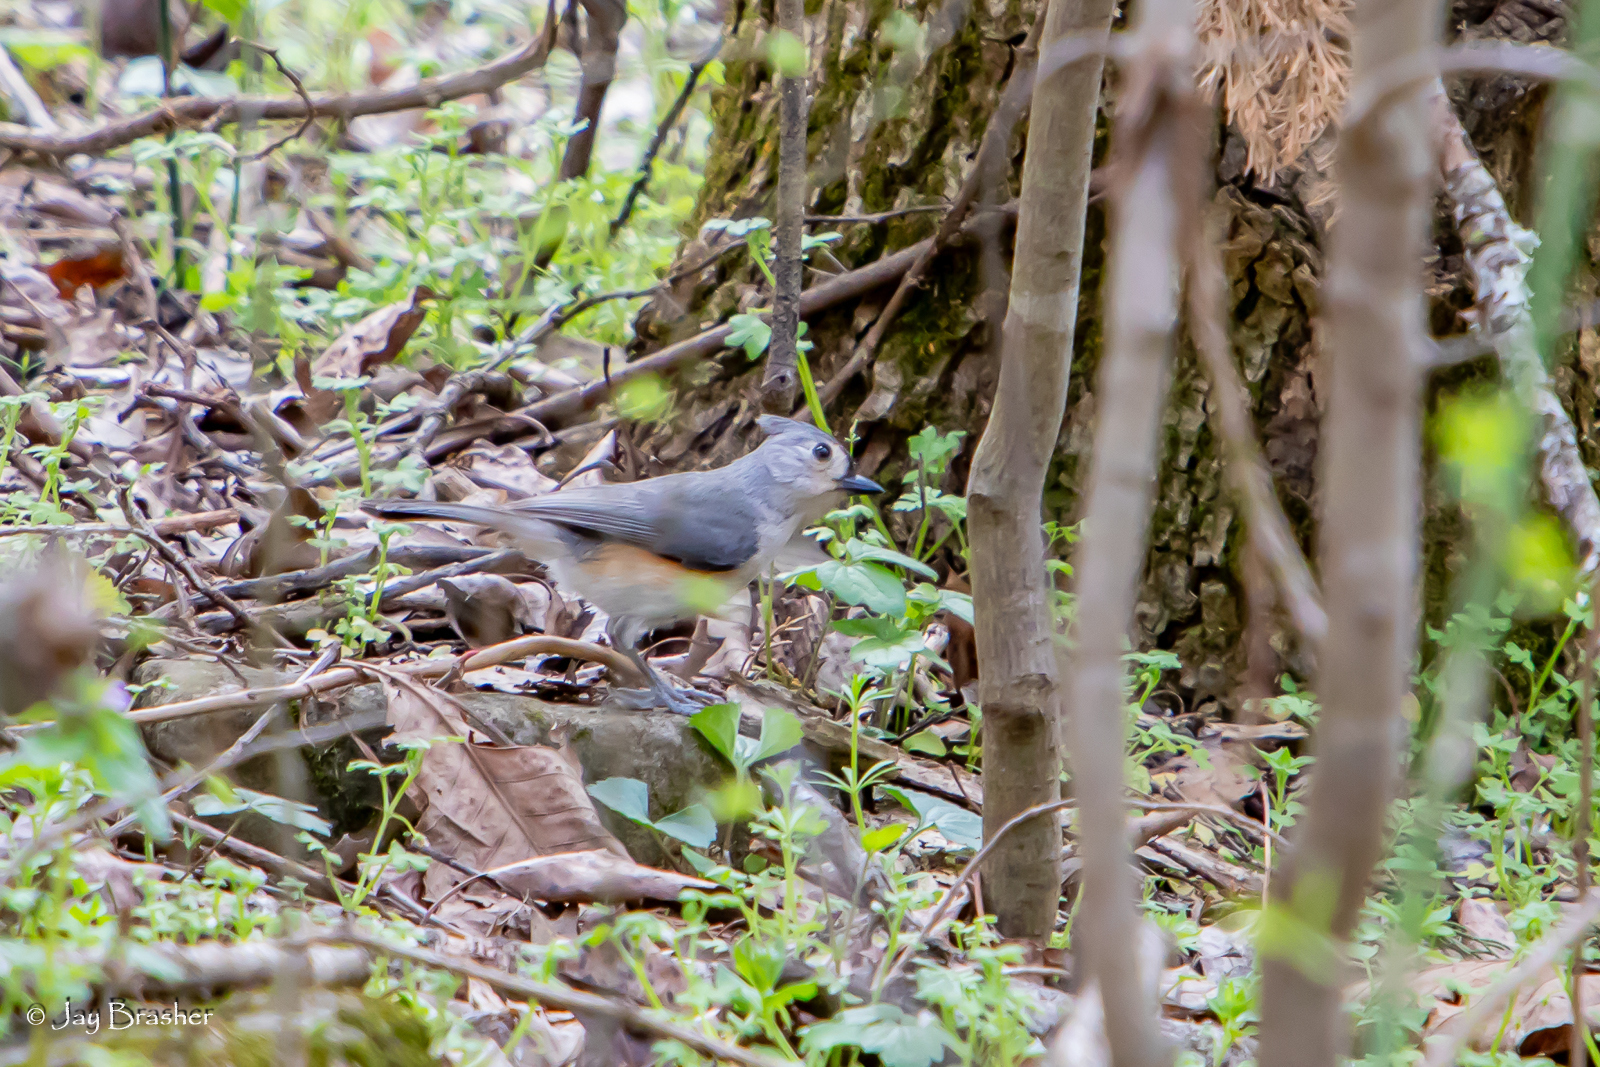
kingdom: Animalia
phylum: Chordata
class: Aves
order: Passeriformes
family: Paridae
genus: Baeolophus
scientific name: Baeolophus bicolor
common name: Tufted titmouse
